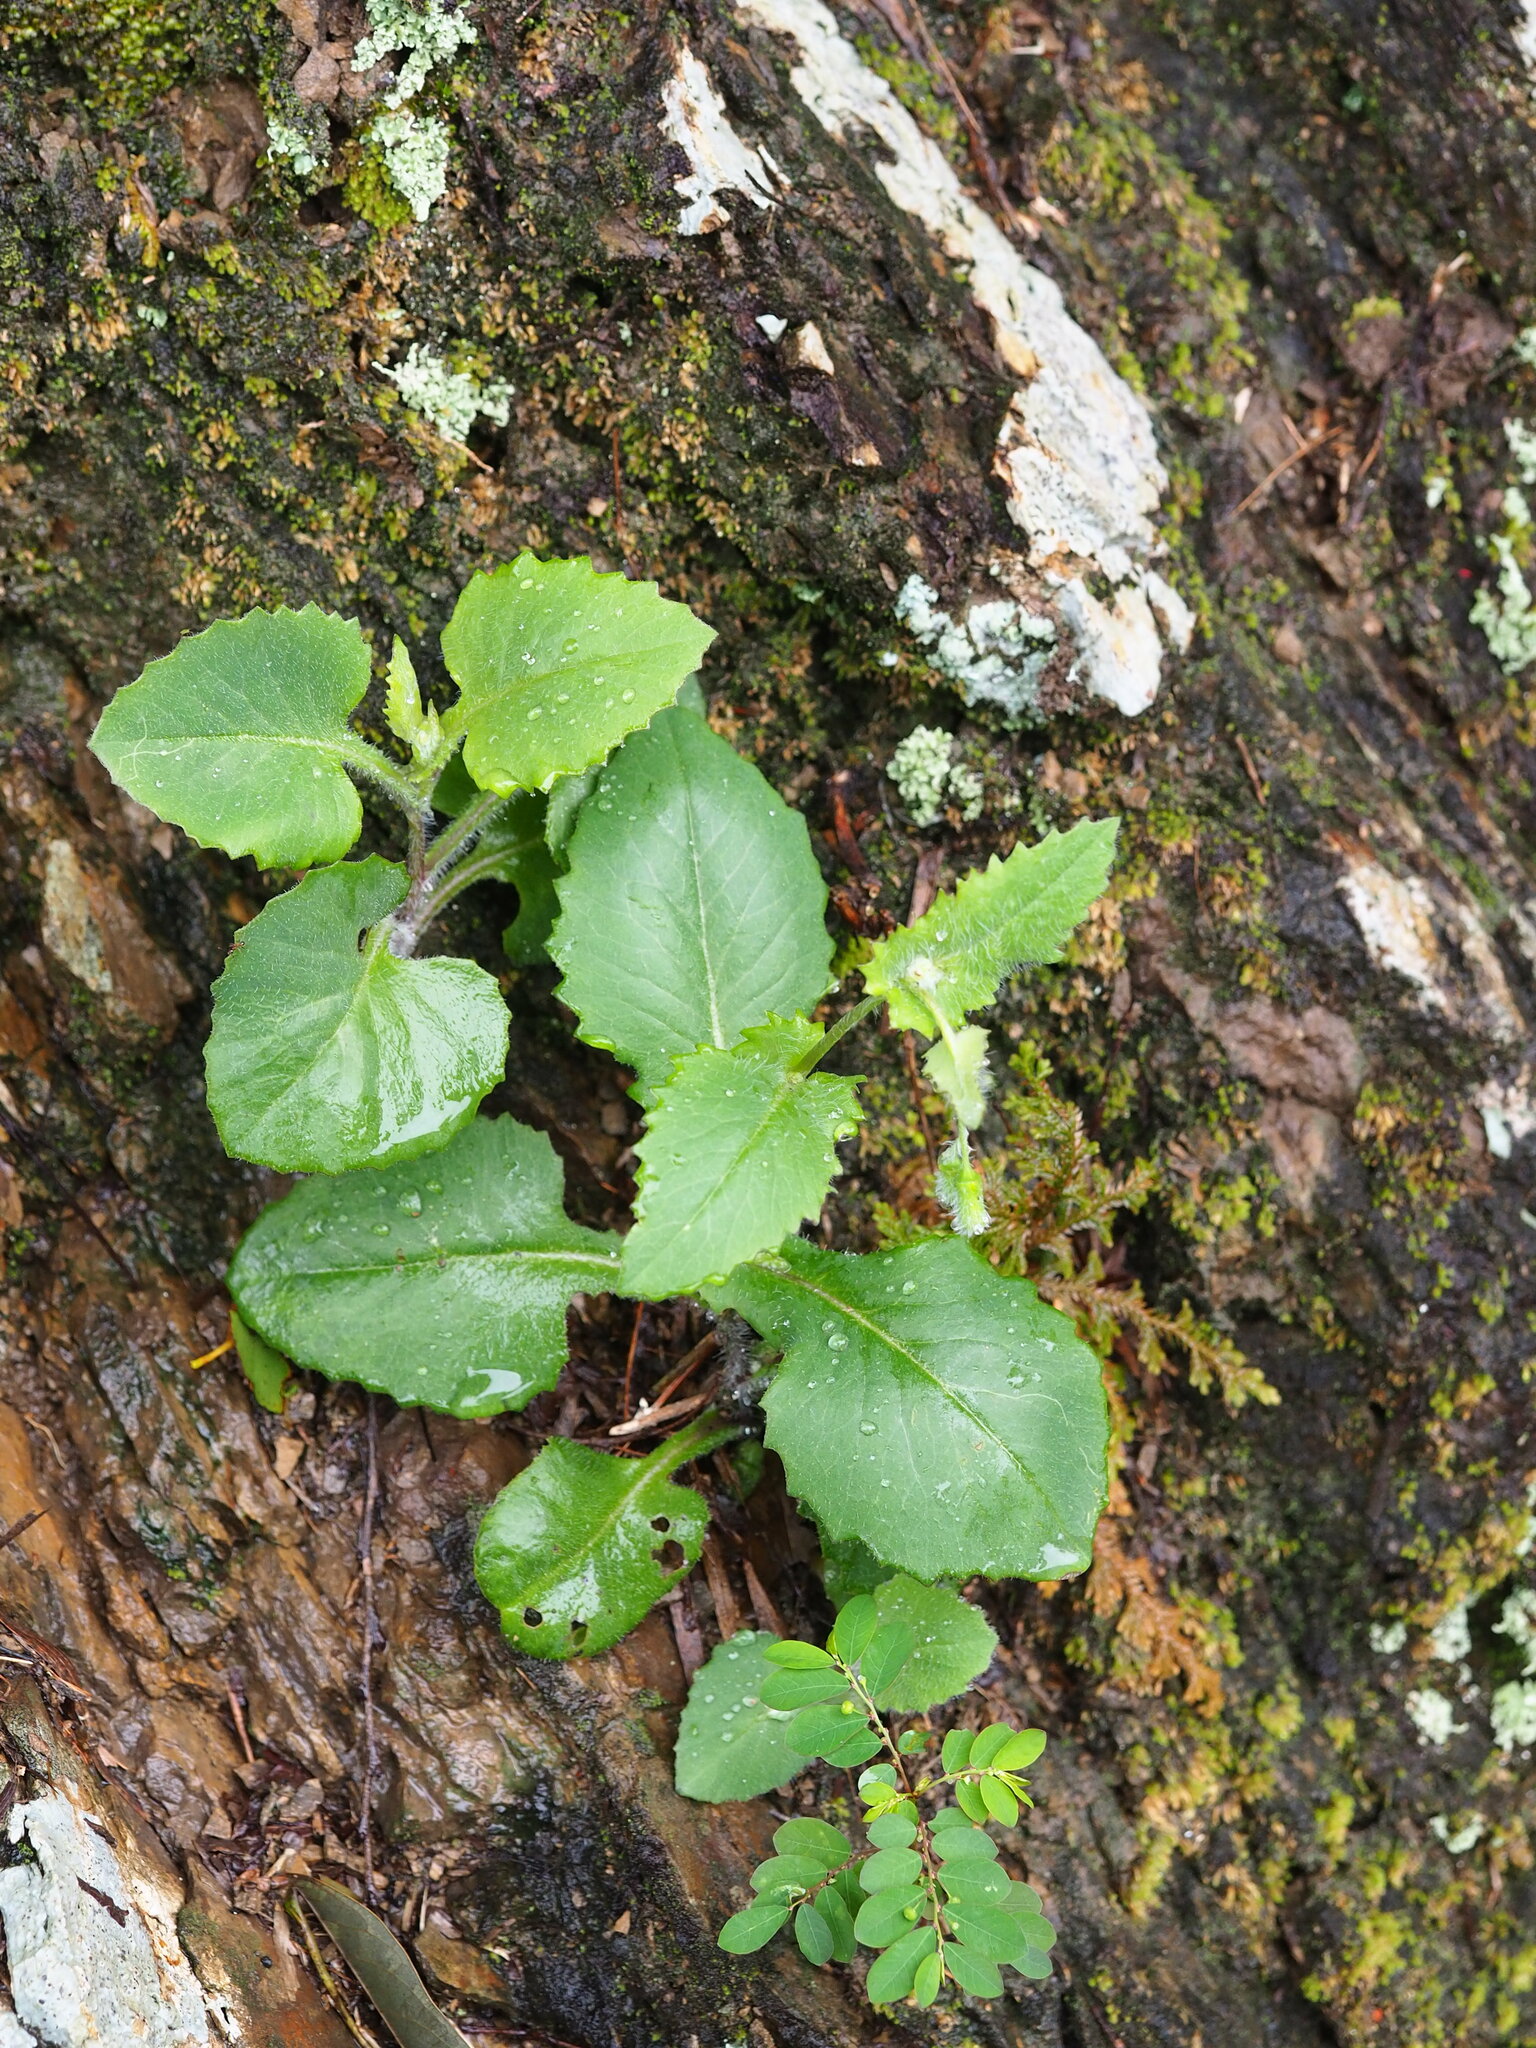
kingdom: Plantae
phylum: Tracheophyta
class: Magnoliopsida
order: Asterales
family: Asteraceae
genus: Emilia
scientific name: Emilia praetermissa
